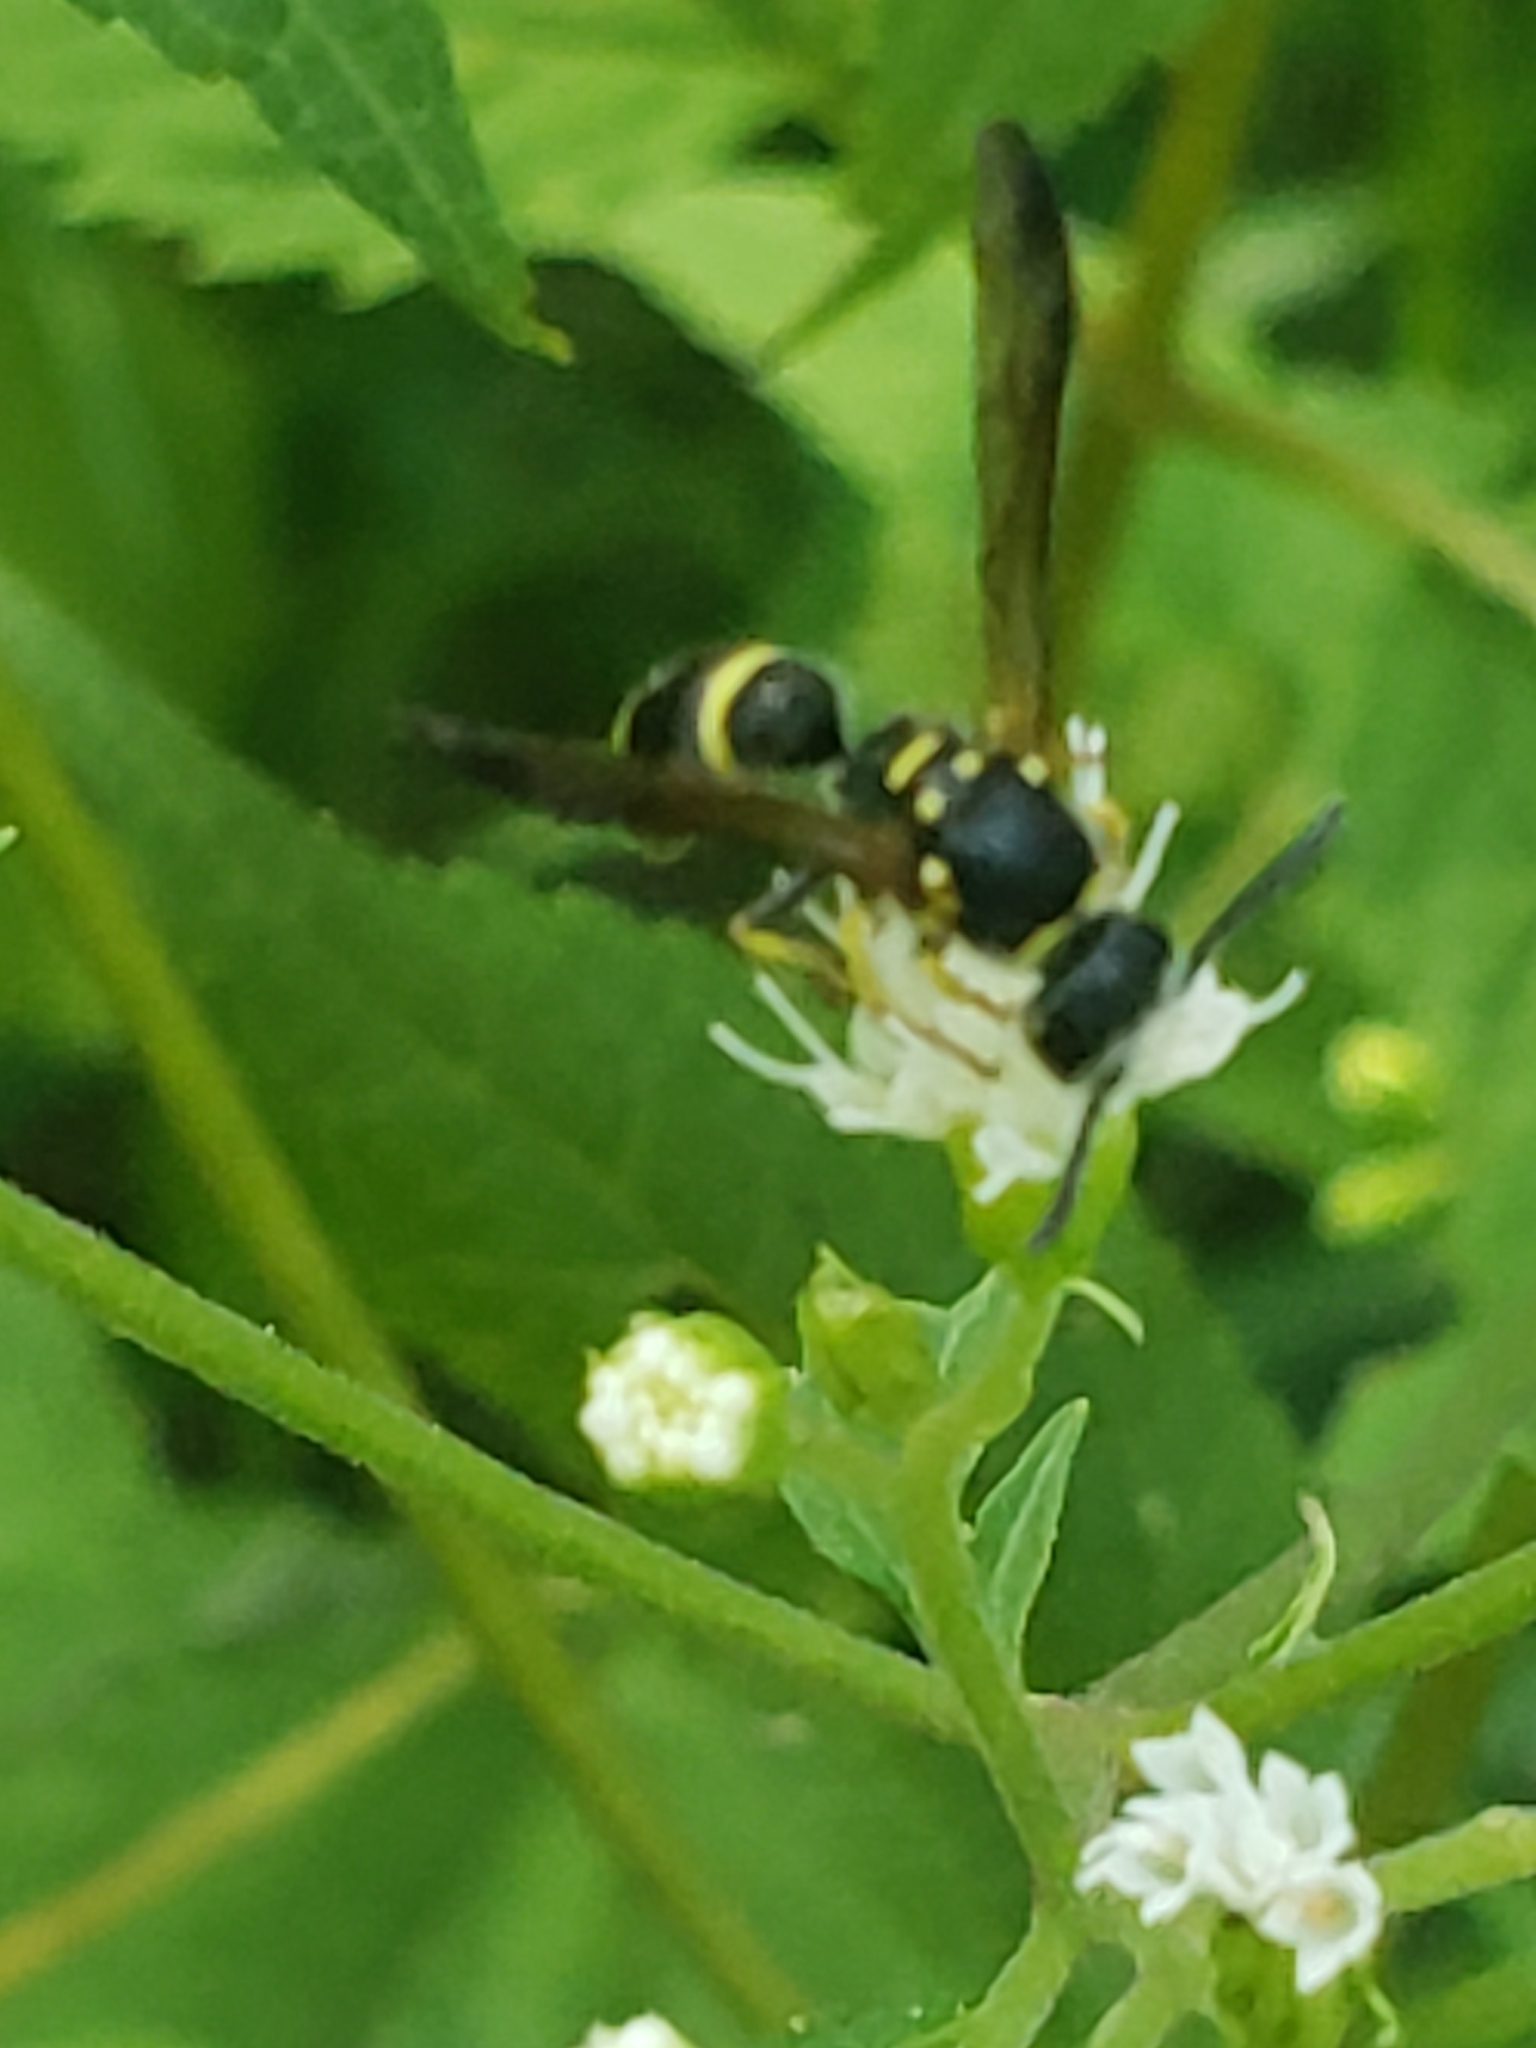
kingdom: Animalia
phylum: Arthropoda
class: Insecta
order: Hymenoptera
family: Vespidae
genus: Ancistrocerus
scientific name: Ancistrocerus adiabatus
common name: Bramble mason wasp
